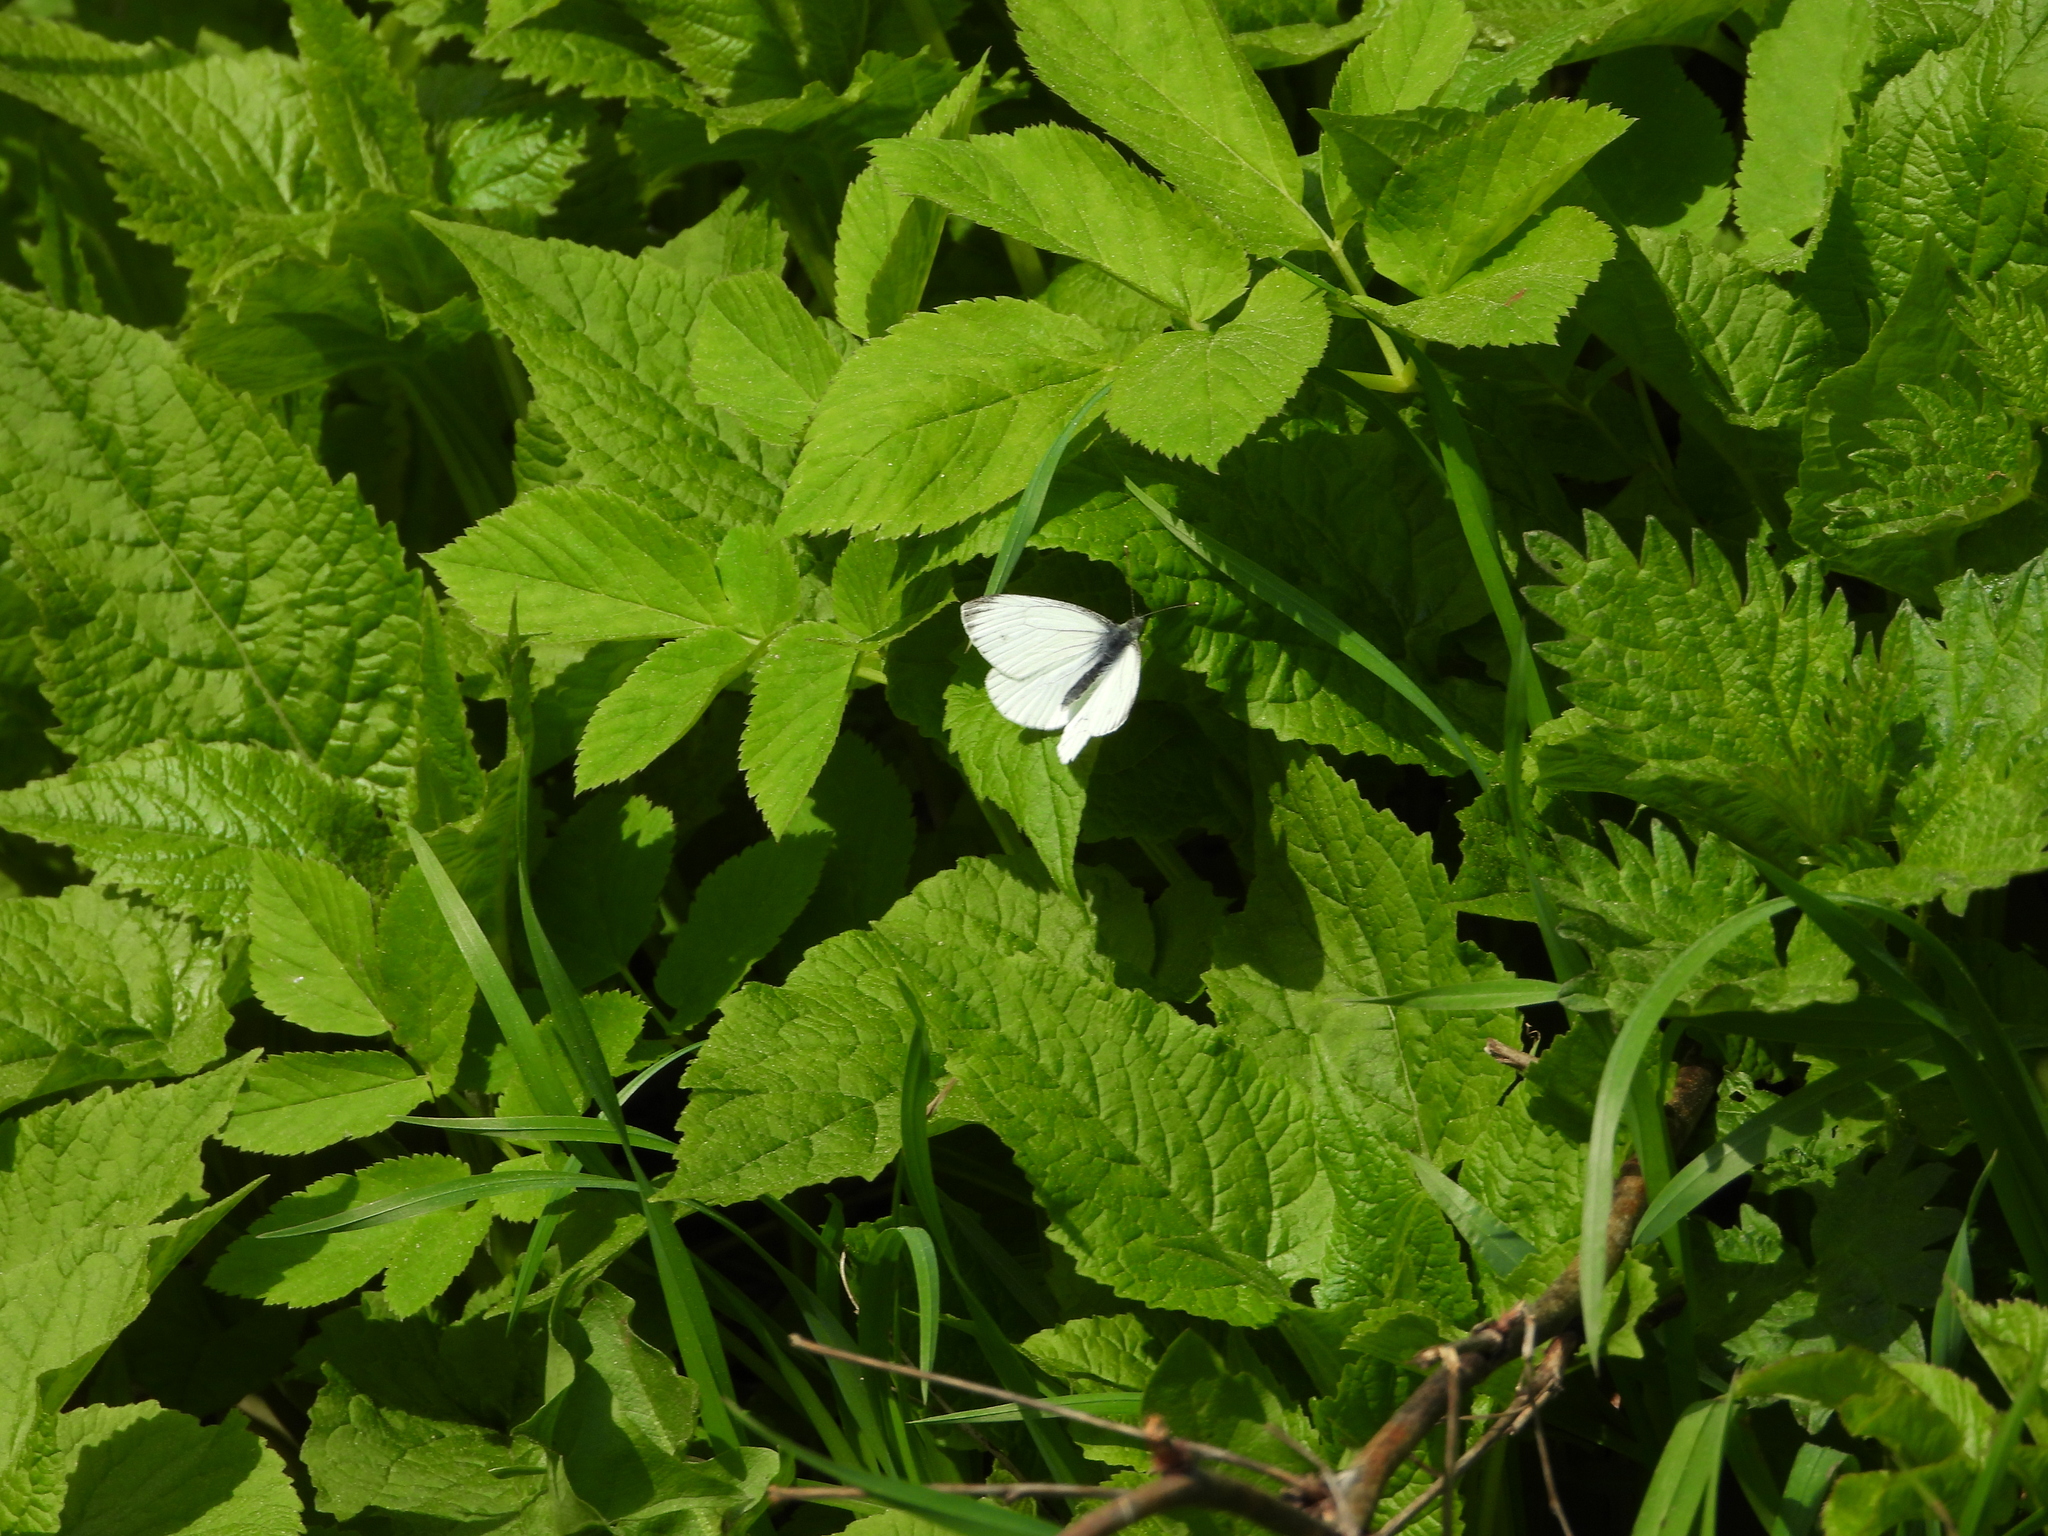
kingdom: Animalia
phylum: Arthropoda
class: Insecta
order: Lepidoptera
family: Pieridae
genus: Pieris
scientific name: Pieris napi
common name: Green-veined white
